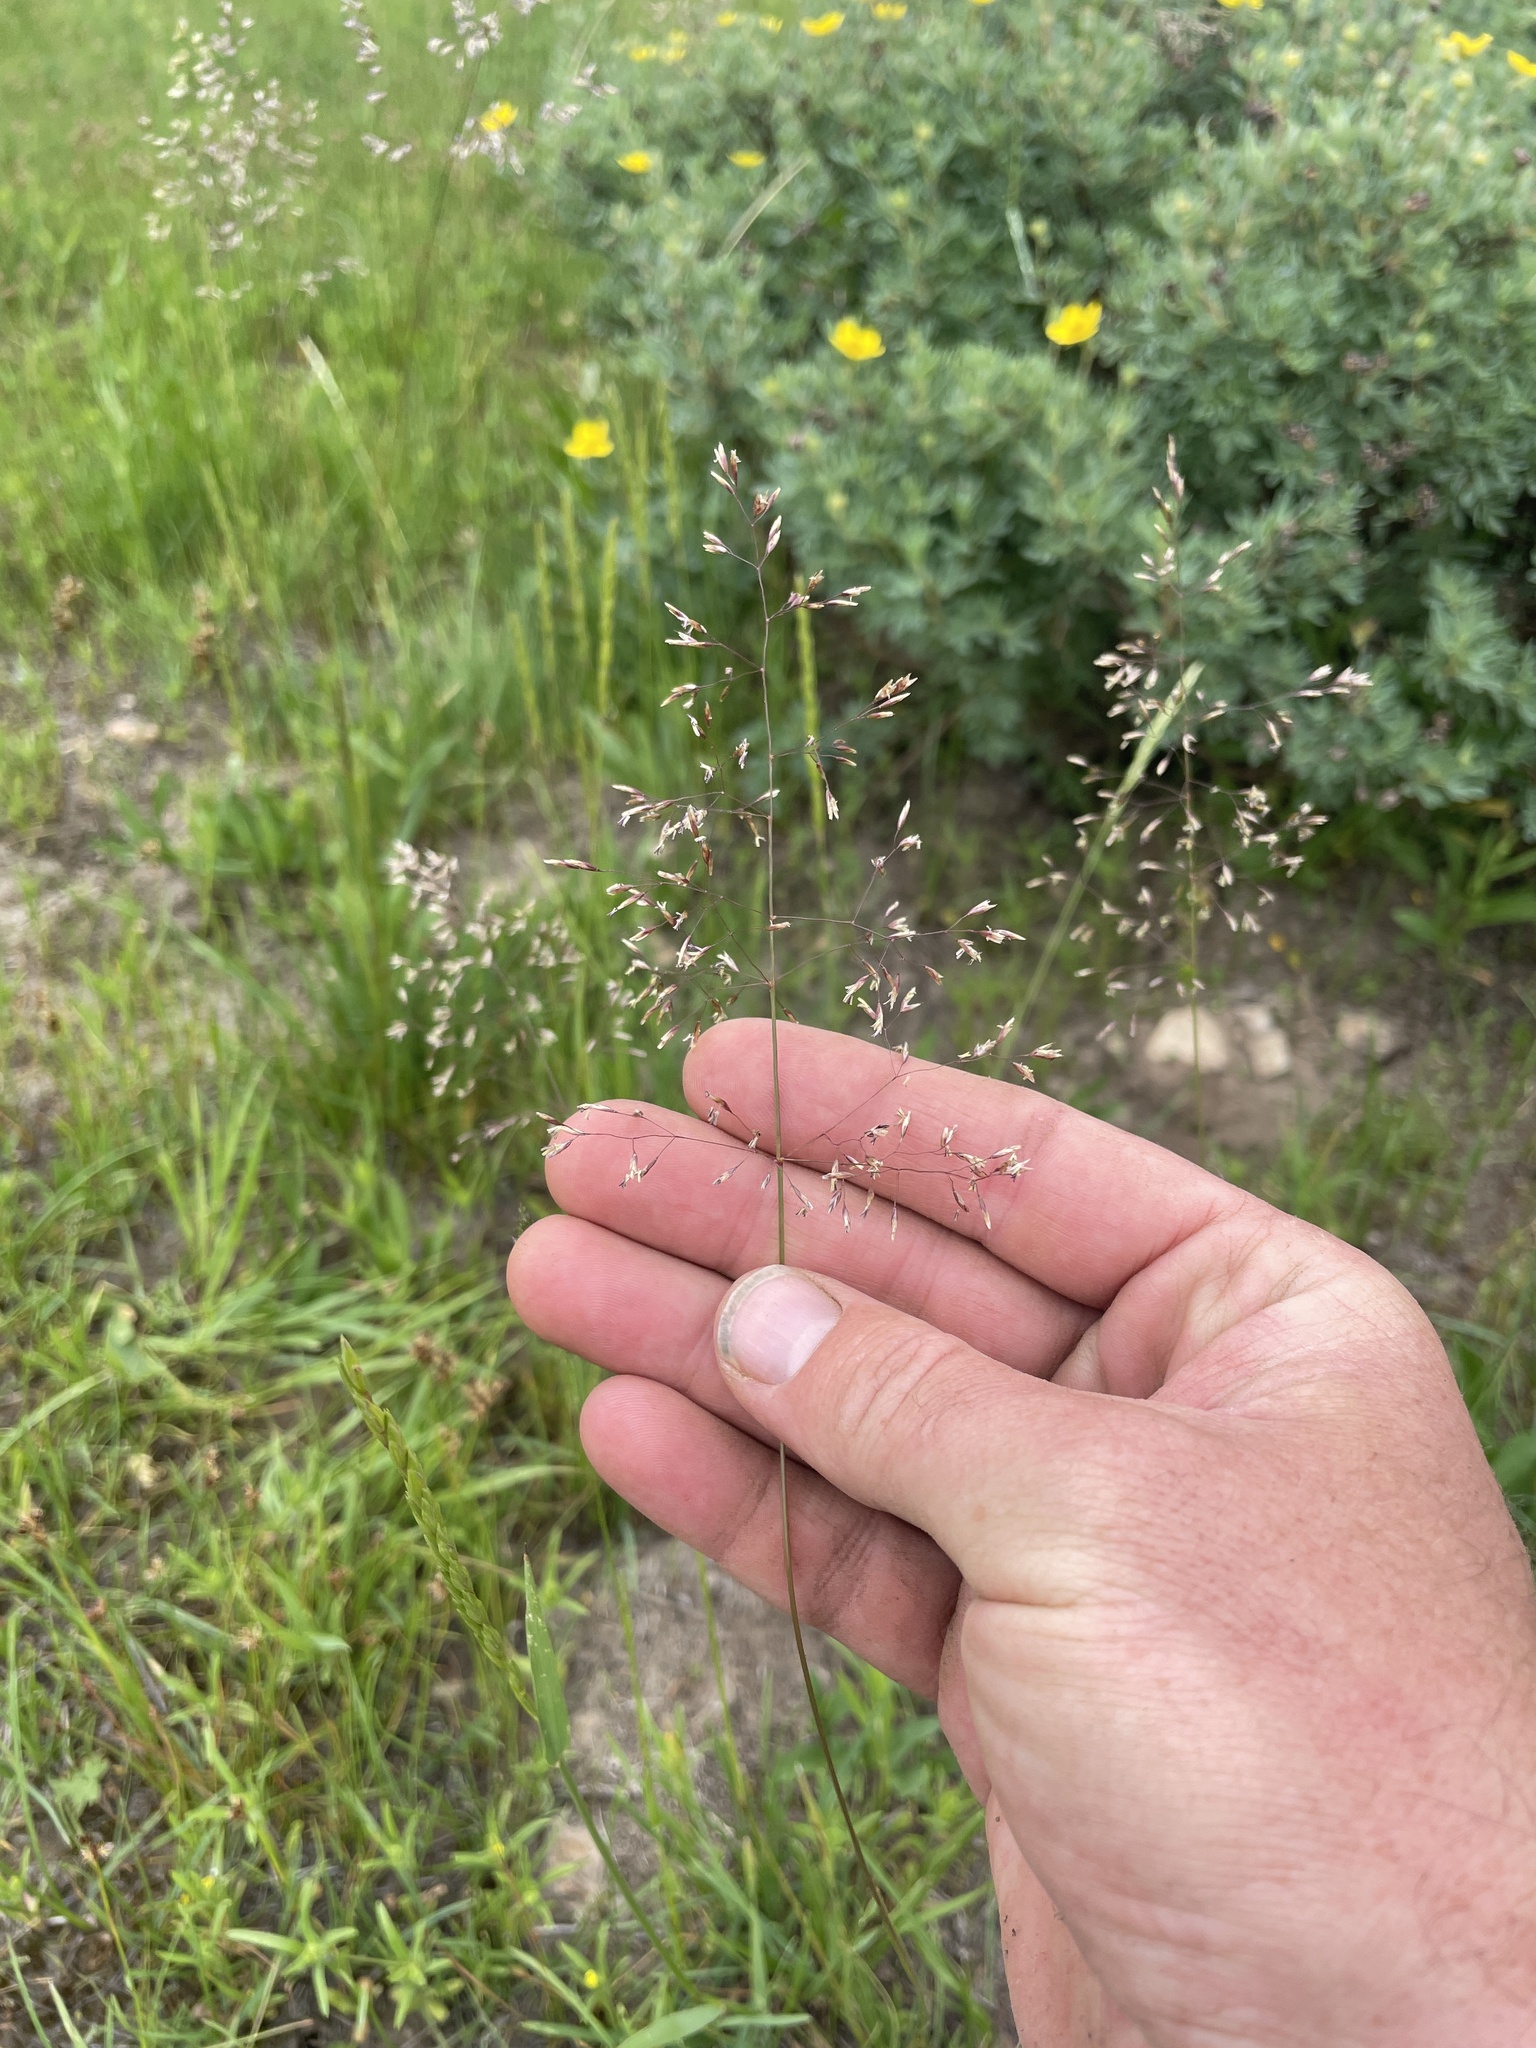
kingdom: Plantae
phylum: Tracheophyta
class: Liliopsida
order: Poales
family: Poaceae
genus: Deschampsia
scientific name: Deschampsia cespitosa
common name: Tufted hair-grass
